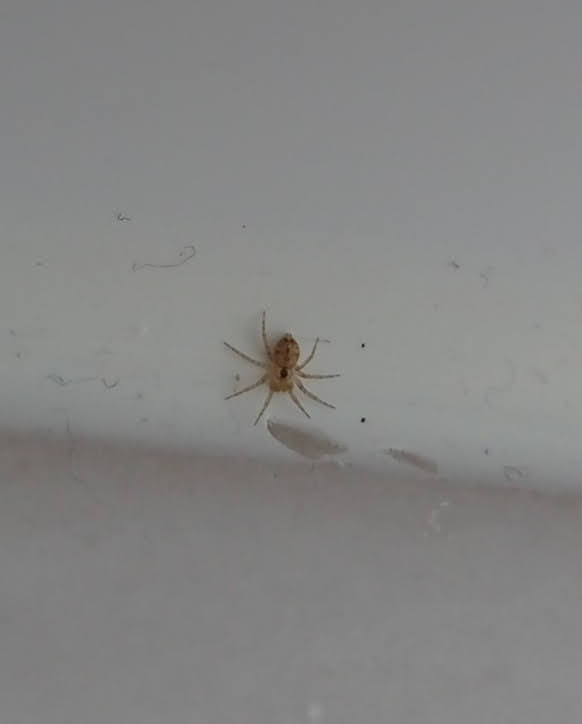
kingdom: Animalia
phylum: Arthropoda
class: Arachnida
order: Araneae
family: Oecobiidae
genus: Oecobius
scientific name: Oecobius navus
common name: Flatmesh weaver
